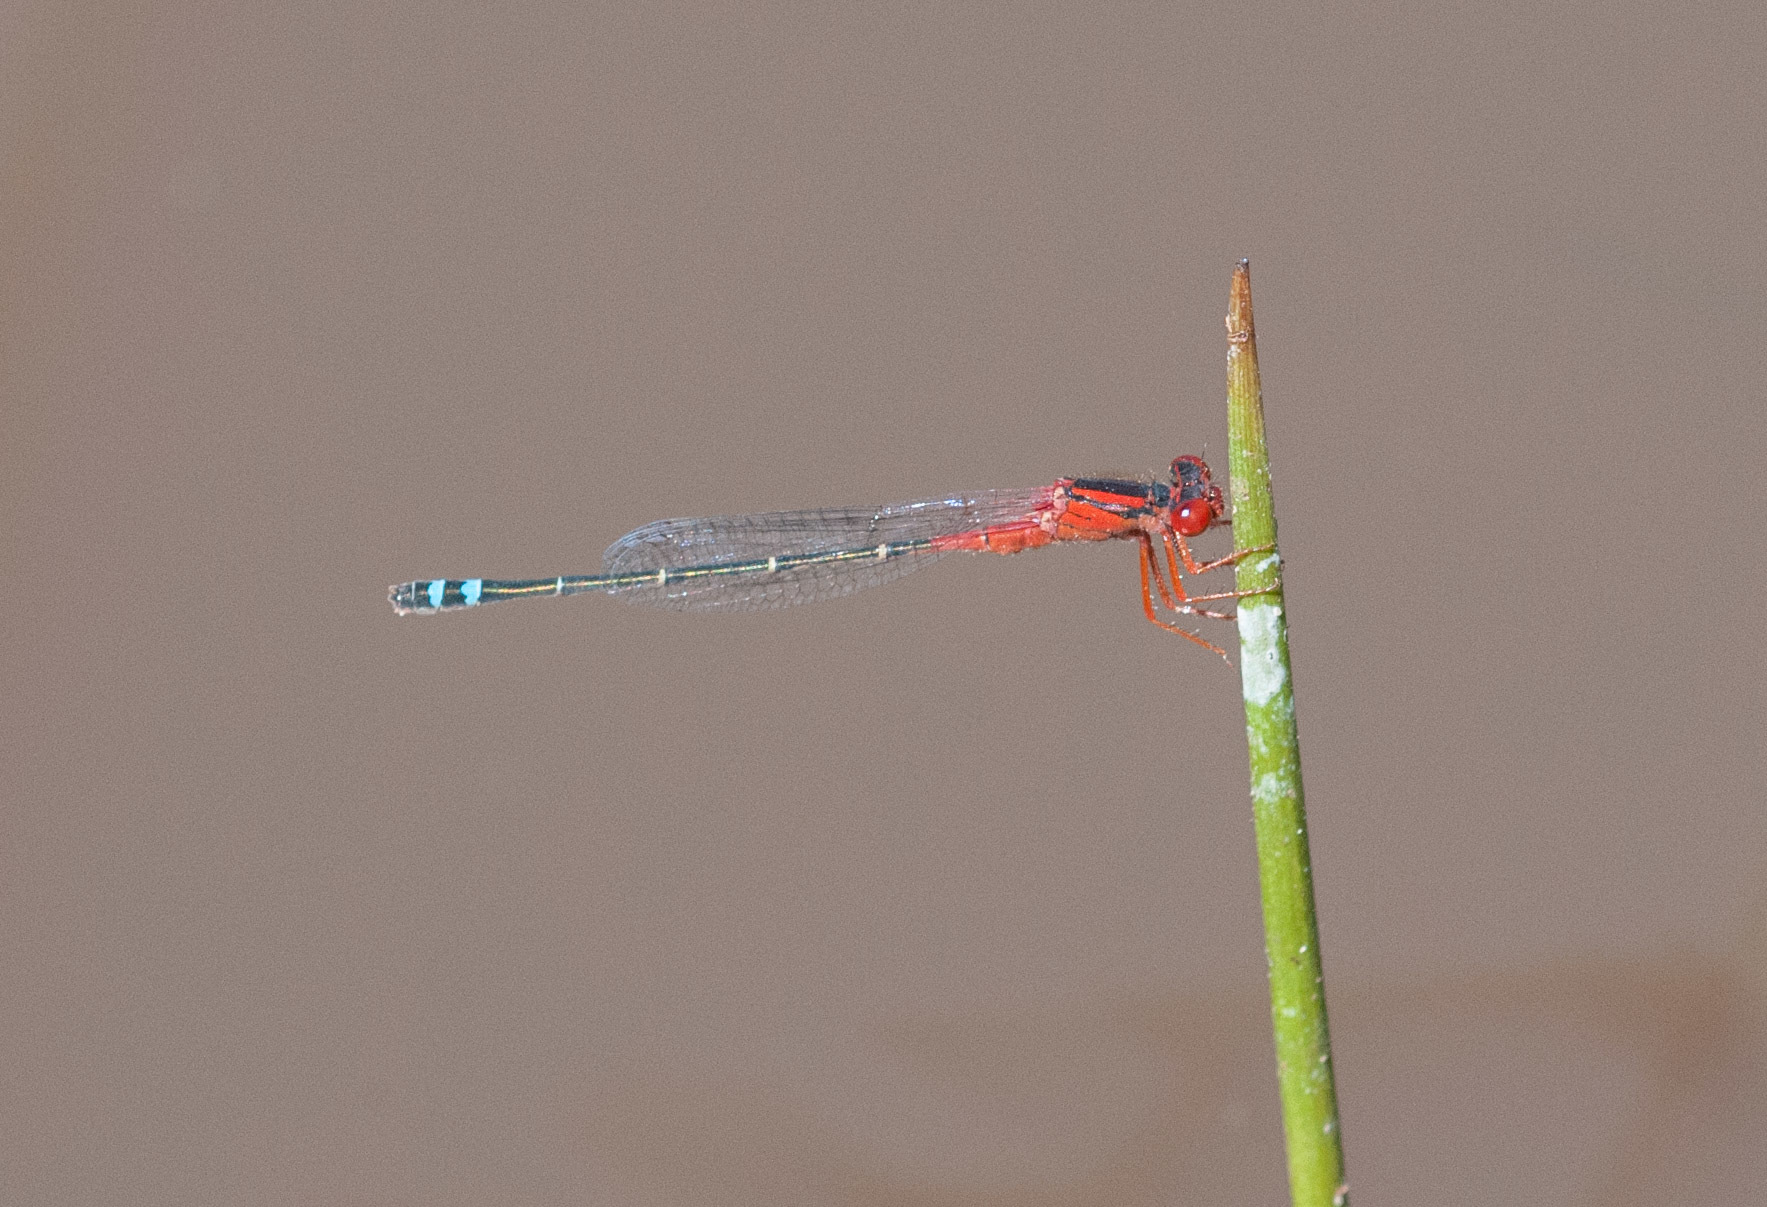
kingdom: Animalia
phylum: Arthropoda
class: Insecta
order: Odonata
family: Coenagrionidae
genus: Xanthagrion
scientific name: Xanthagrion erythroneurum
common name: Red and blue damsel
